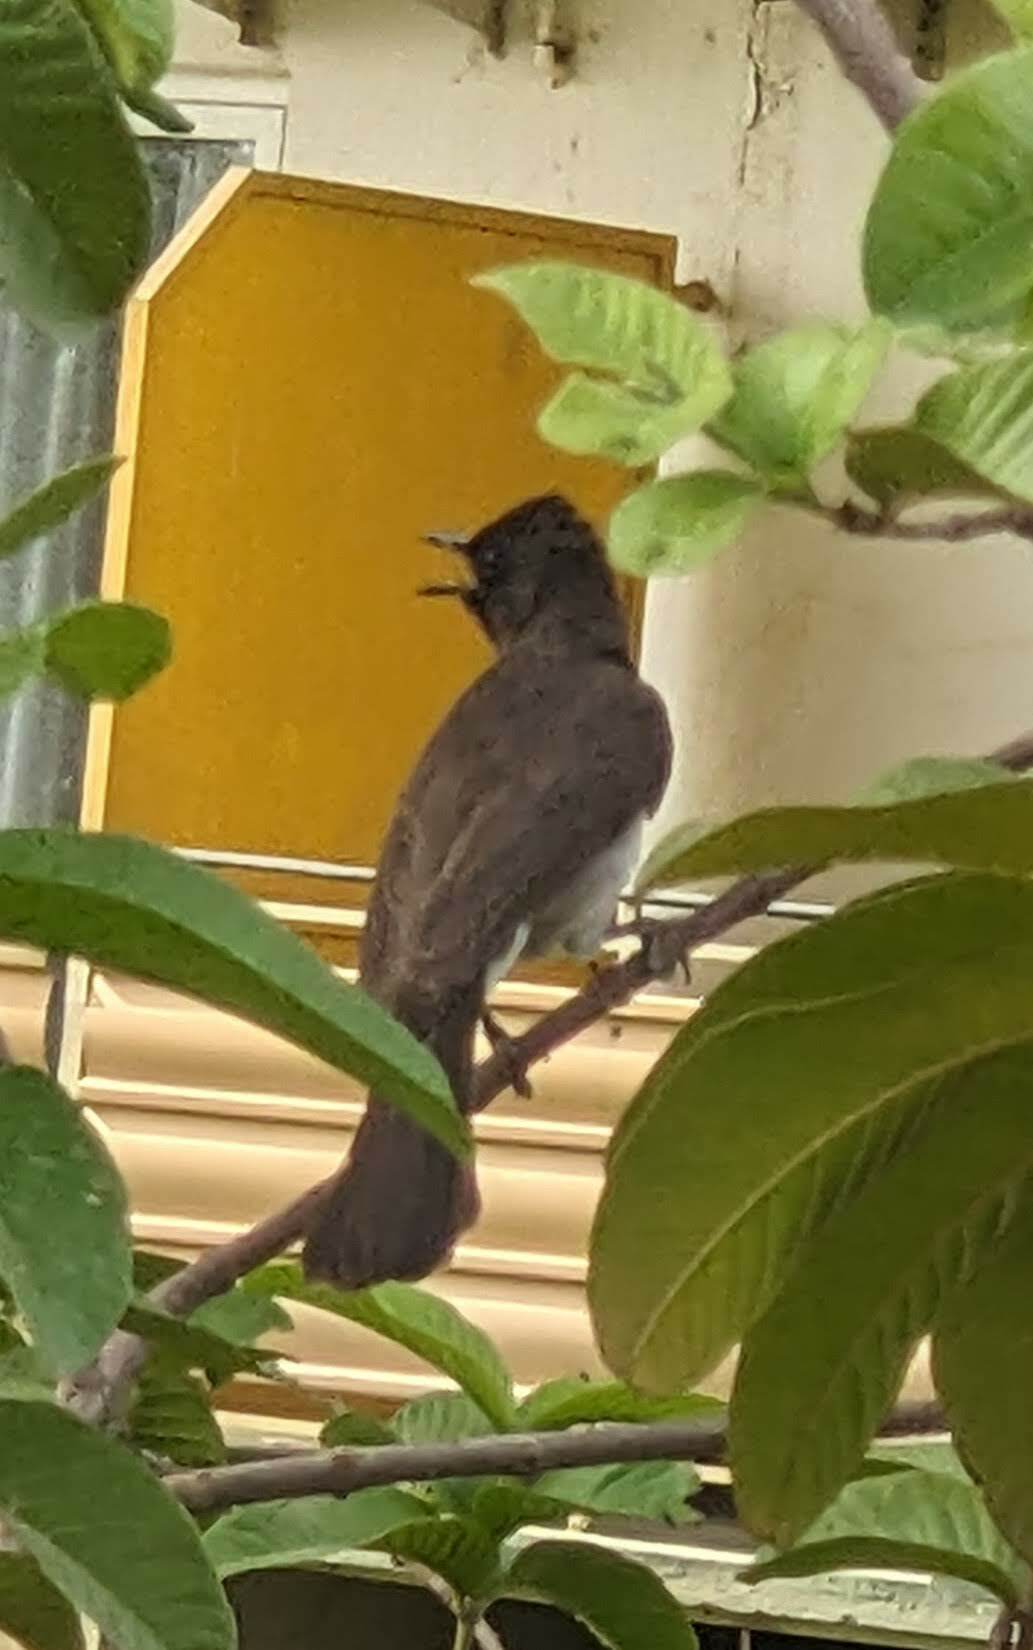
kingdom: Animalia
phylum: Chordata
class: Aves
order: Passeriformes
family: Pycnonotidae
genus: Pycnonotus
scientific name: Pycnonotus barbatus
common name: Common bulbul
